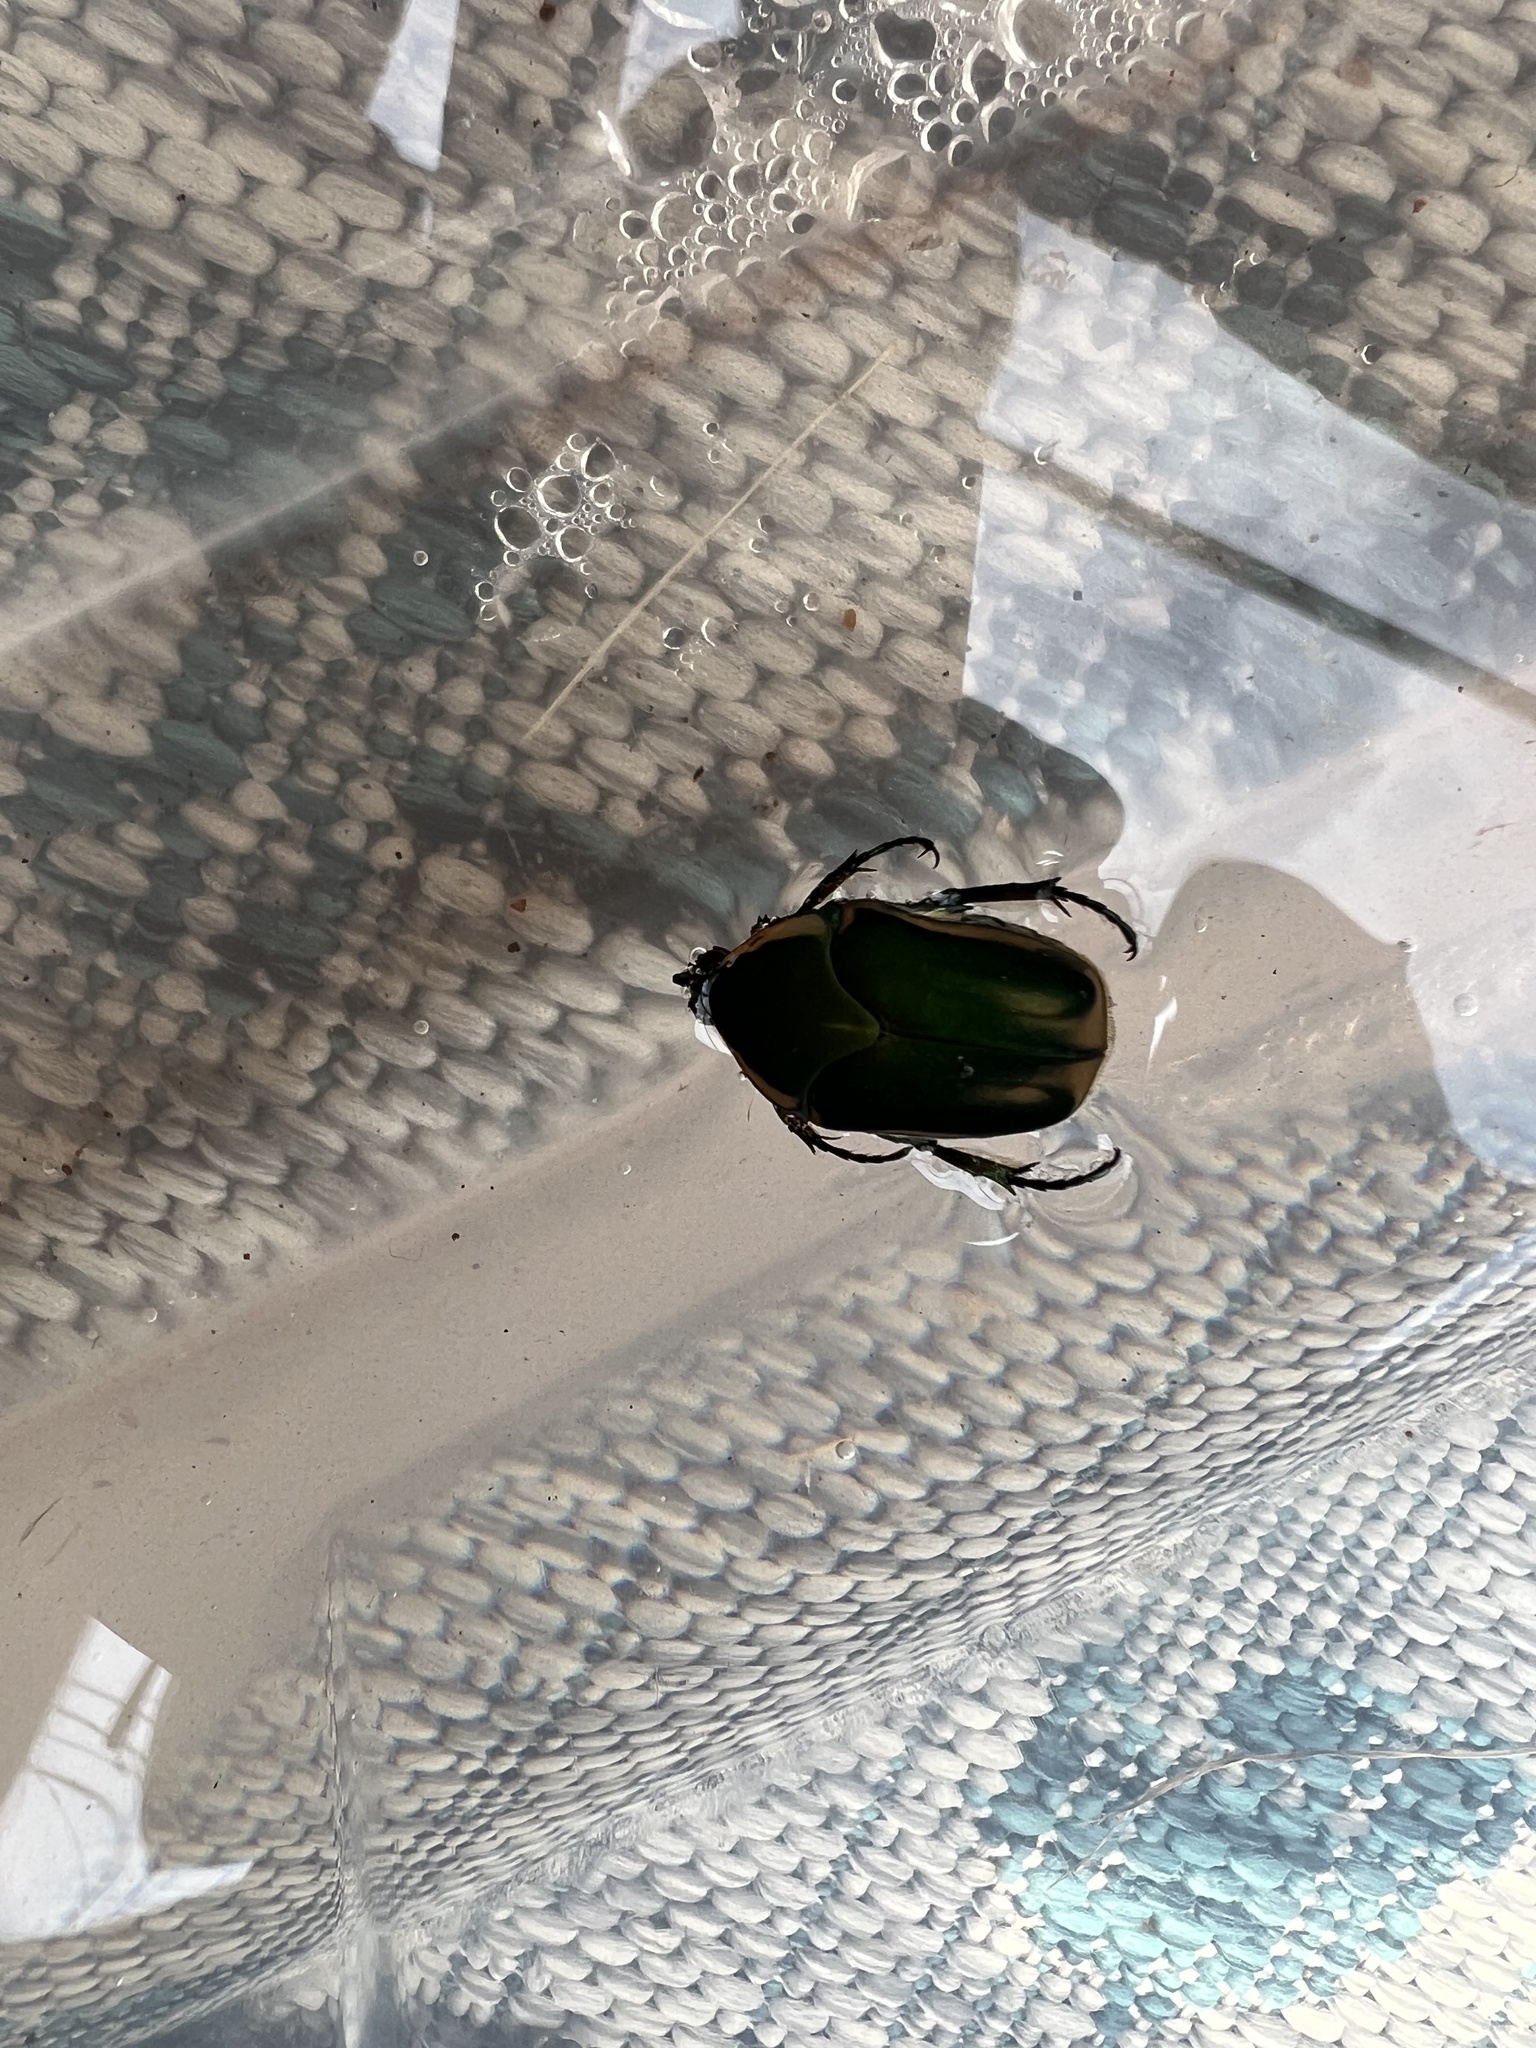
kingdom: Animalia
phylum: Arthropoda
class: Insecta
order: Coleoptera
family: Scarabaeidae
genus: Cotinis
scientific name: Cotinis nitida
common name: Common green june beetle
